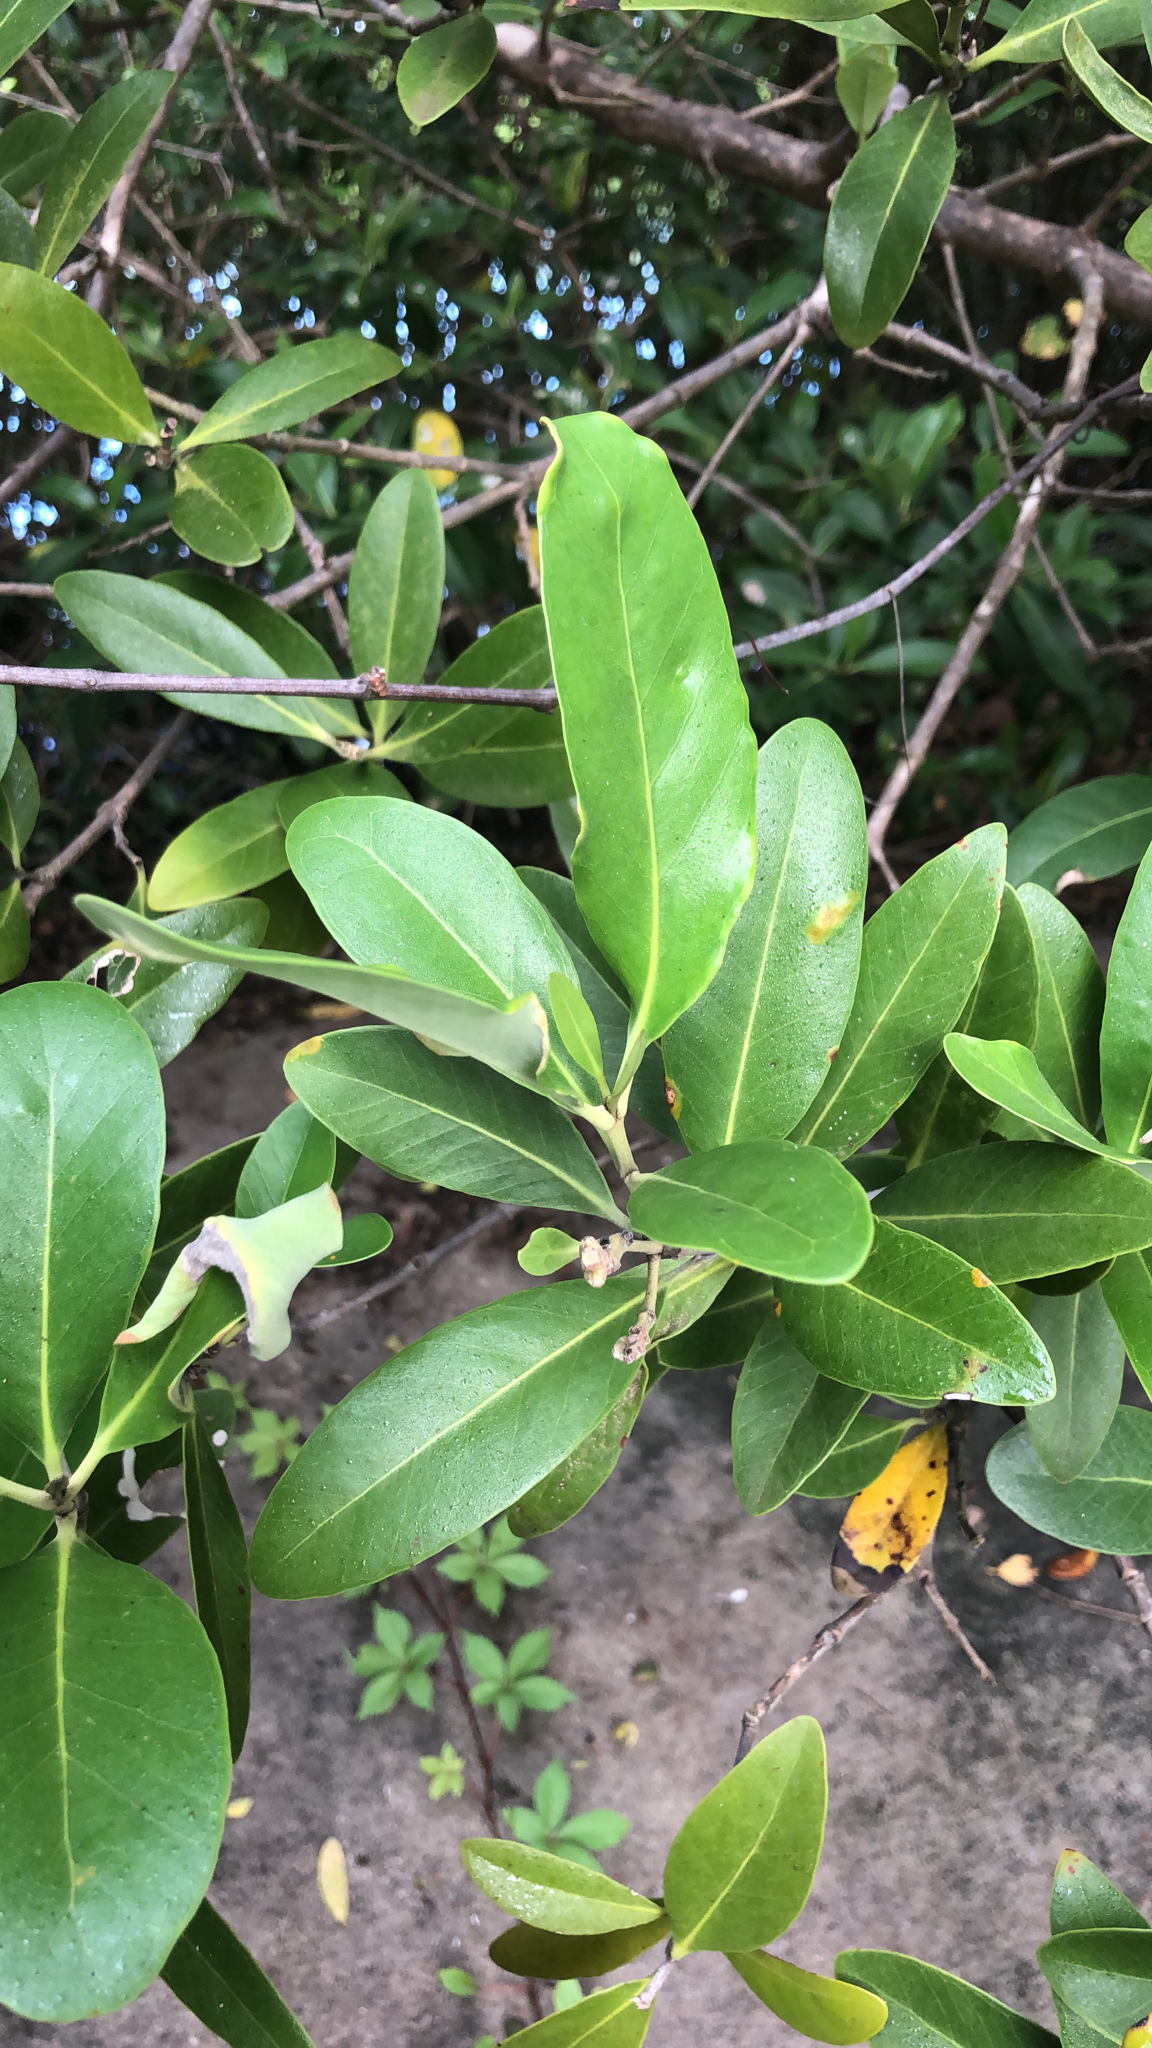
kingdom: Plantae
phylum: Tracheophyta
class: Magnoliopsida
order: Lamiales
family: Acanthaceae
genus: Avicennia
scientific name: Avicennia germinans
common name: Black mangrove
